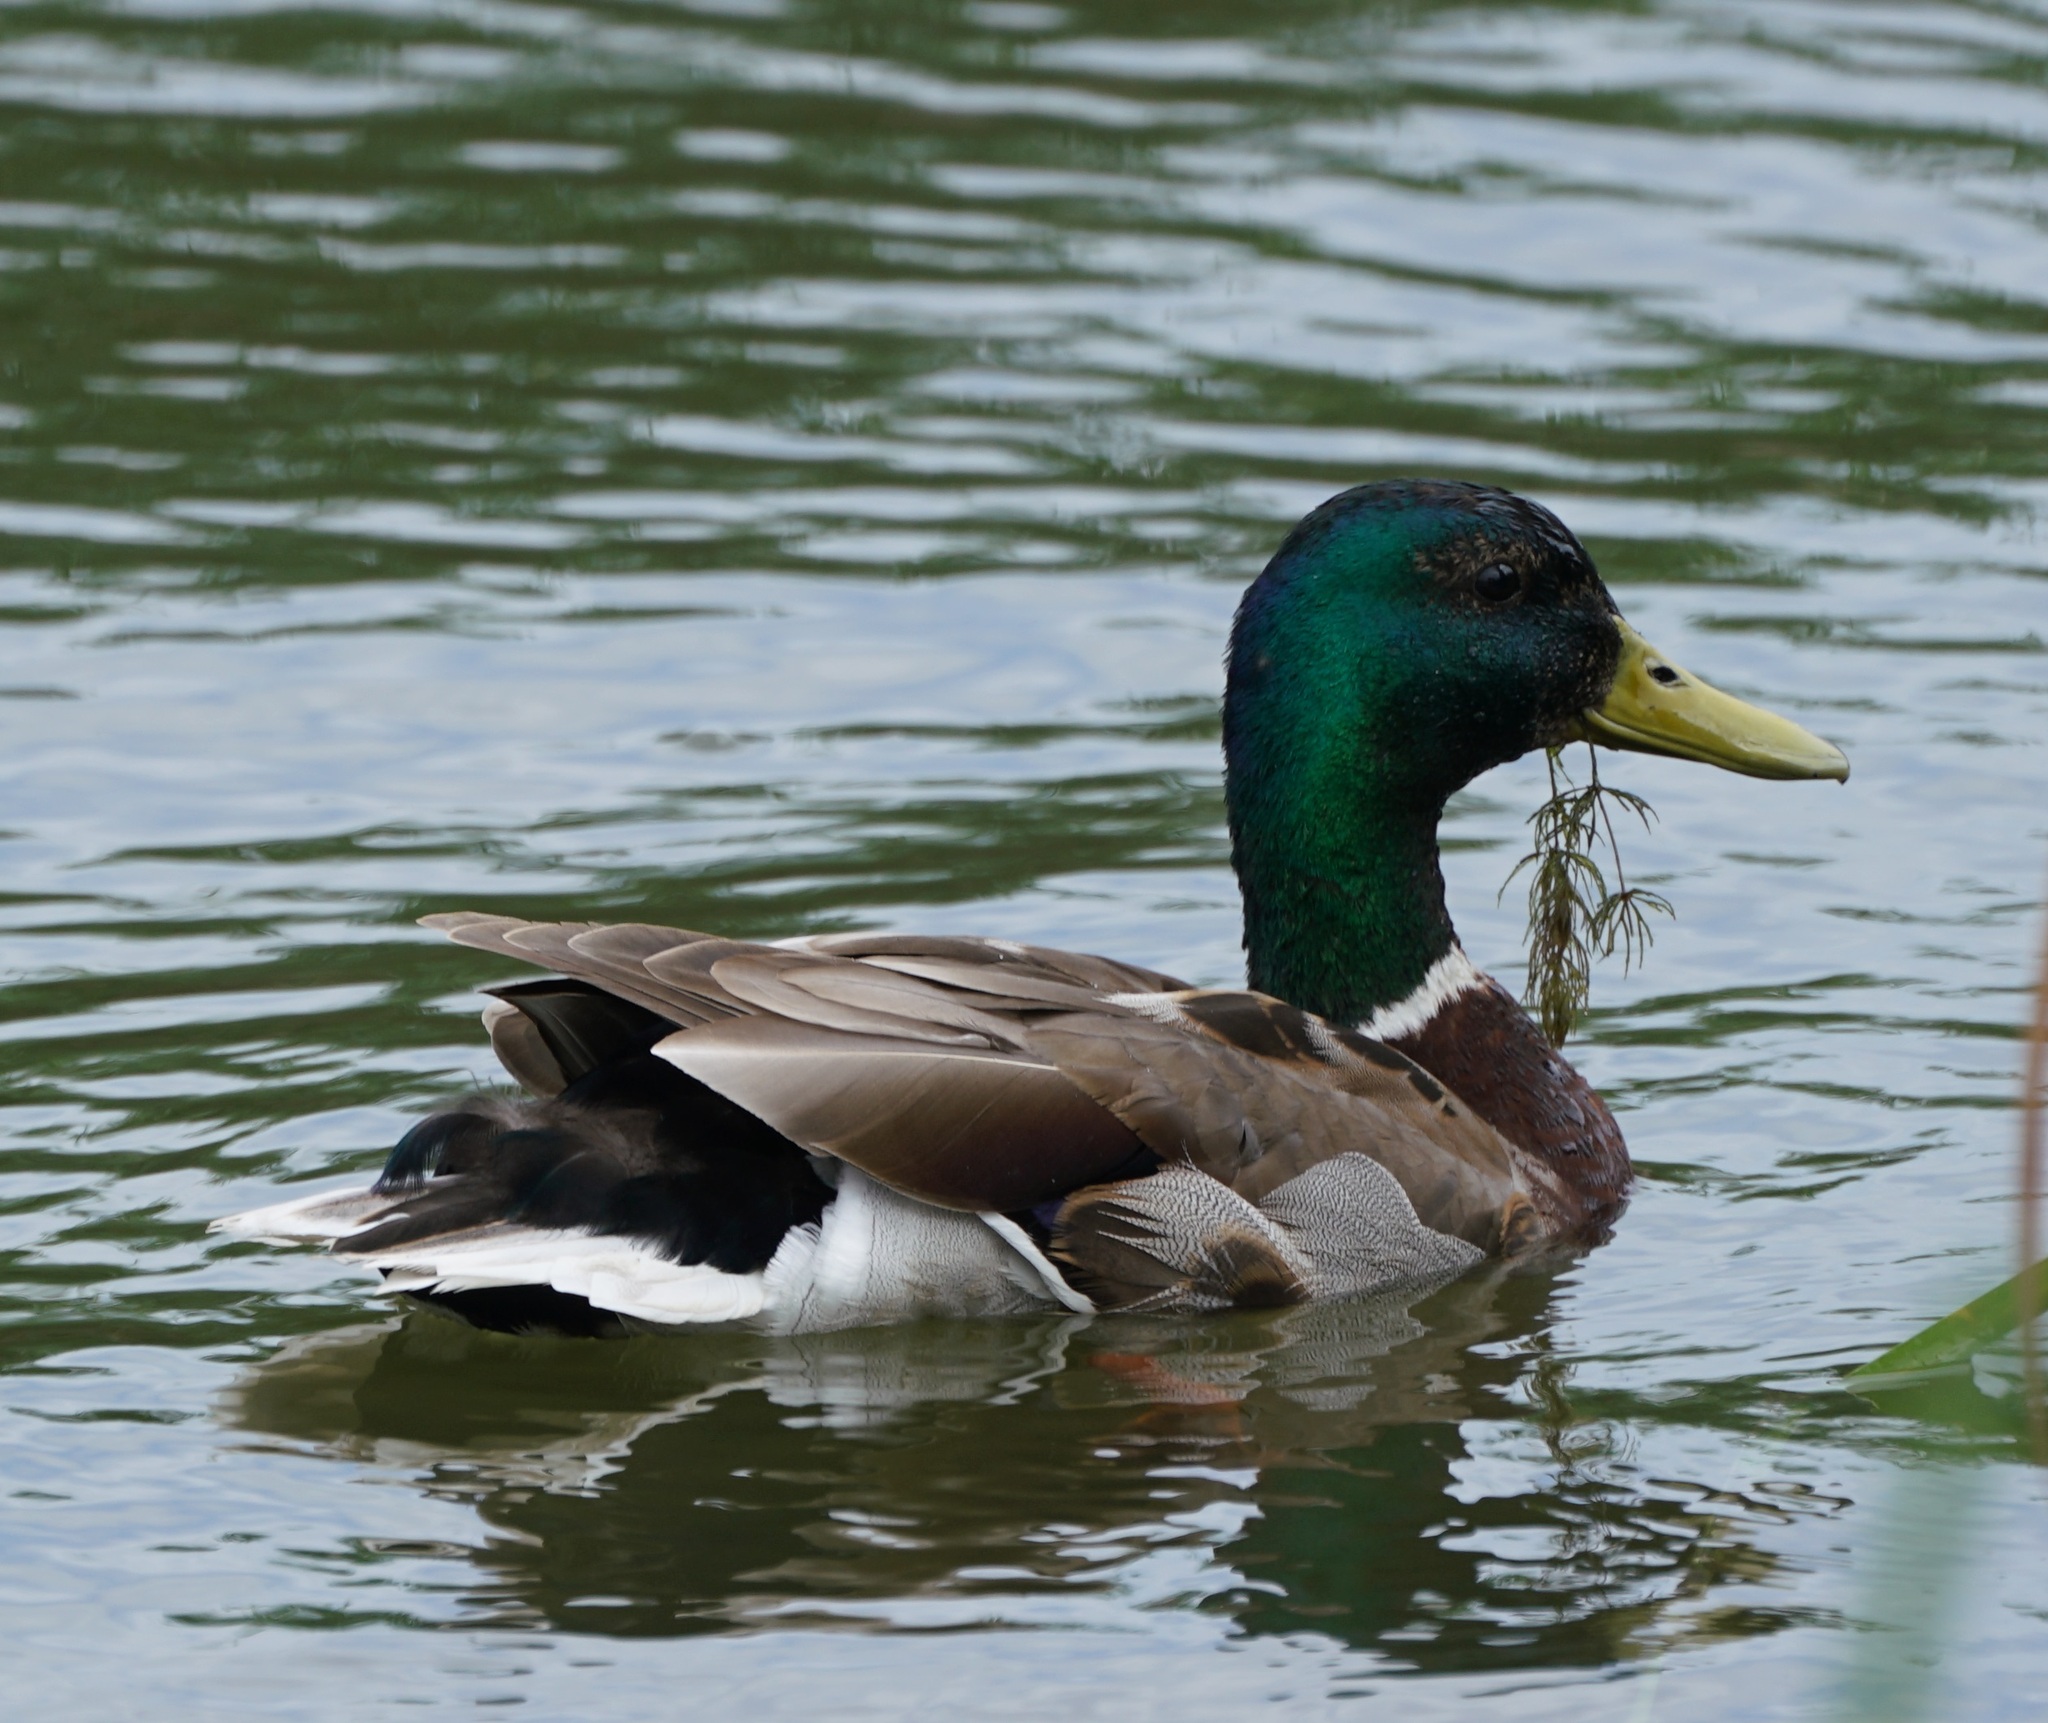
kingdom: Animalia
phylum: Chordata
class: Aves
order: Anseriformes
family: Anatidae
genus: Anas
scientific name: Anas platyrhynchos
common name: Mallard
